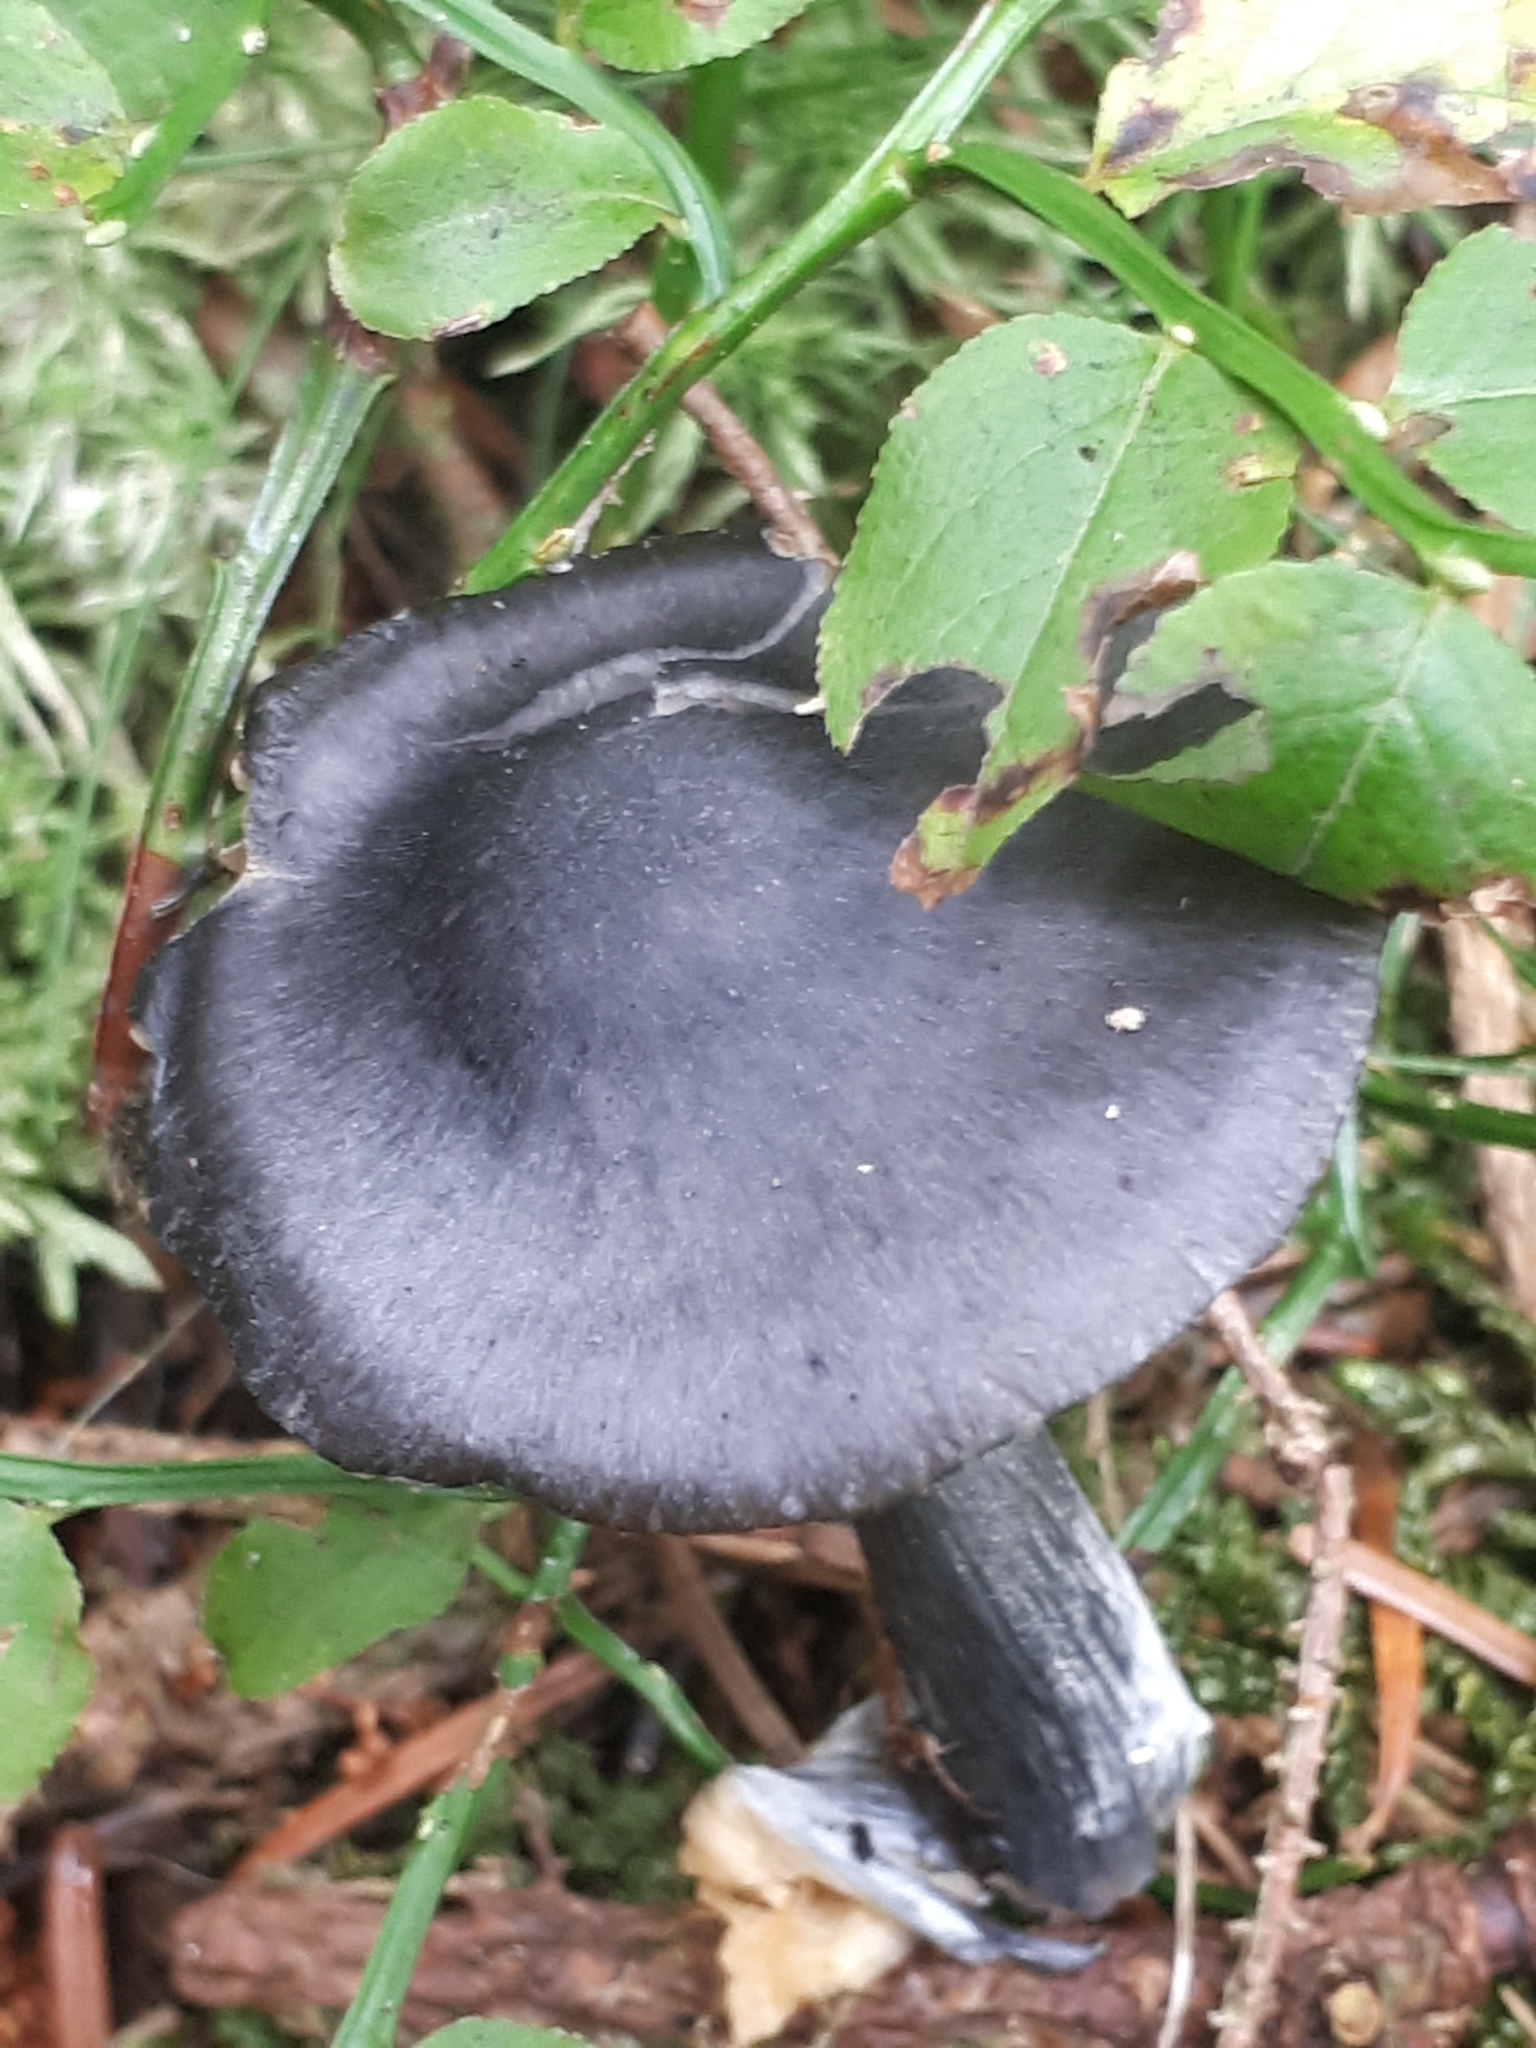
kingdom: Fungi
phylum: Basidiomycota
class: Agaricomycetes
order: Agaricales
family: Entolomataceae
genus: Entocybe
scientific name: Entocybe nitida
